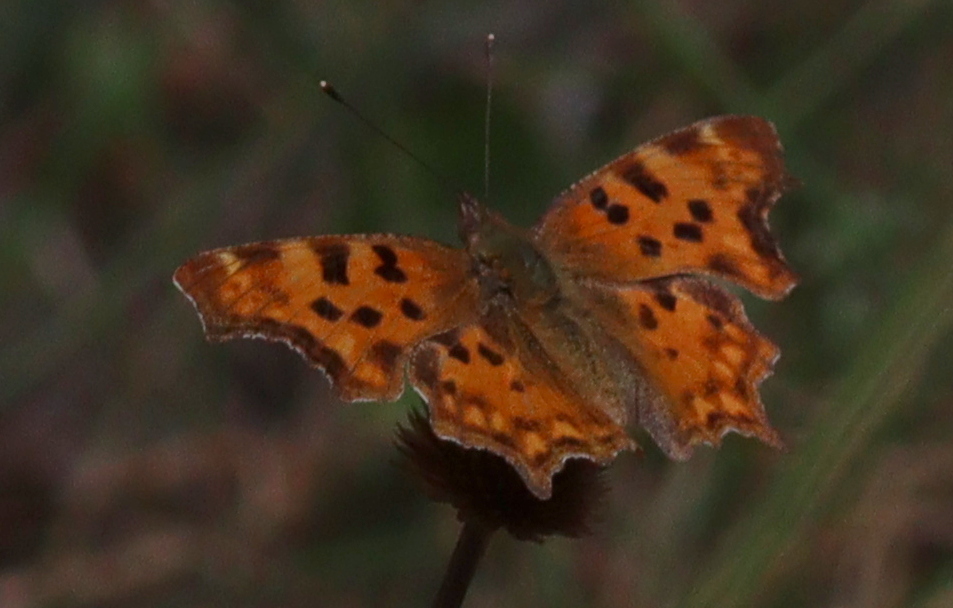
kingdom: Animalia
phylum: Arthropoda
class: Insecta
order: Lepidoptera
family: Nymphalidae
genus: Polygonia
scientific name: Polygonia c-album
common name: Comma
